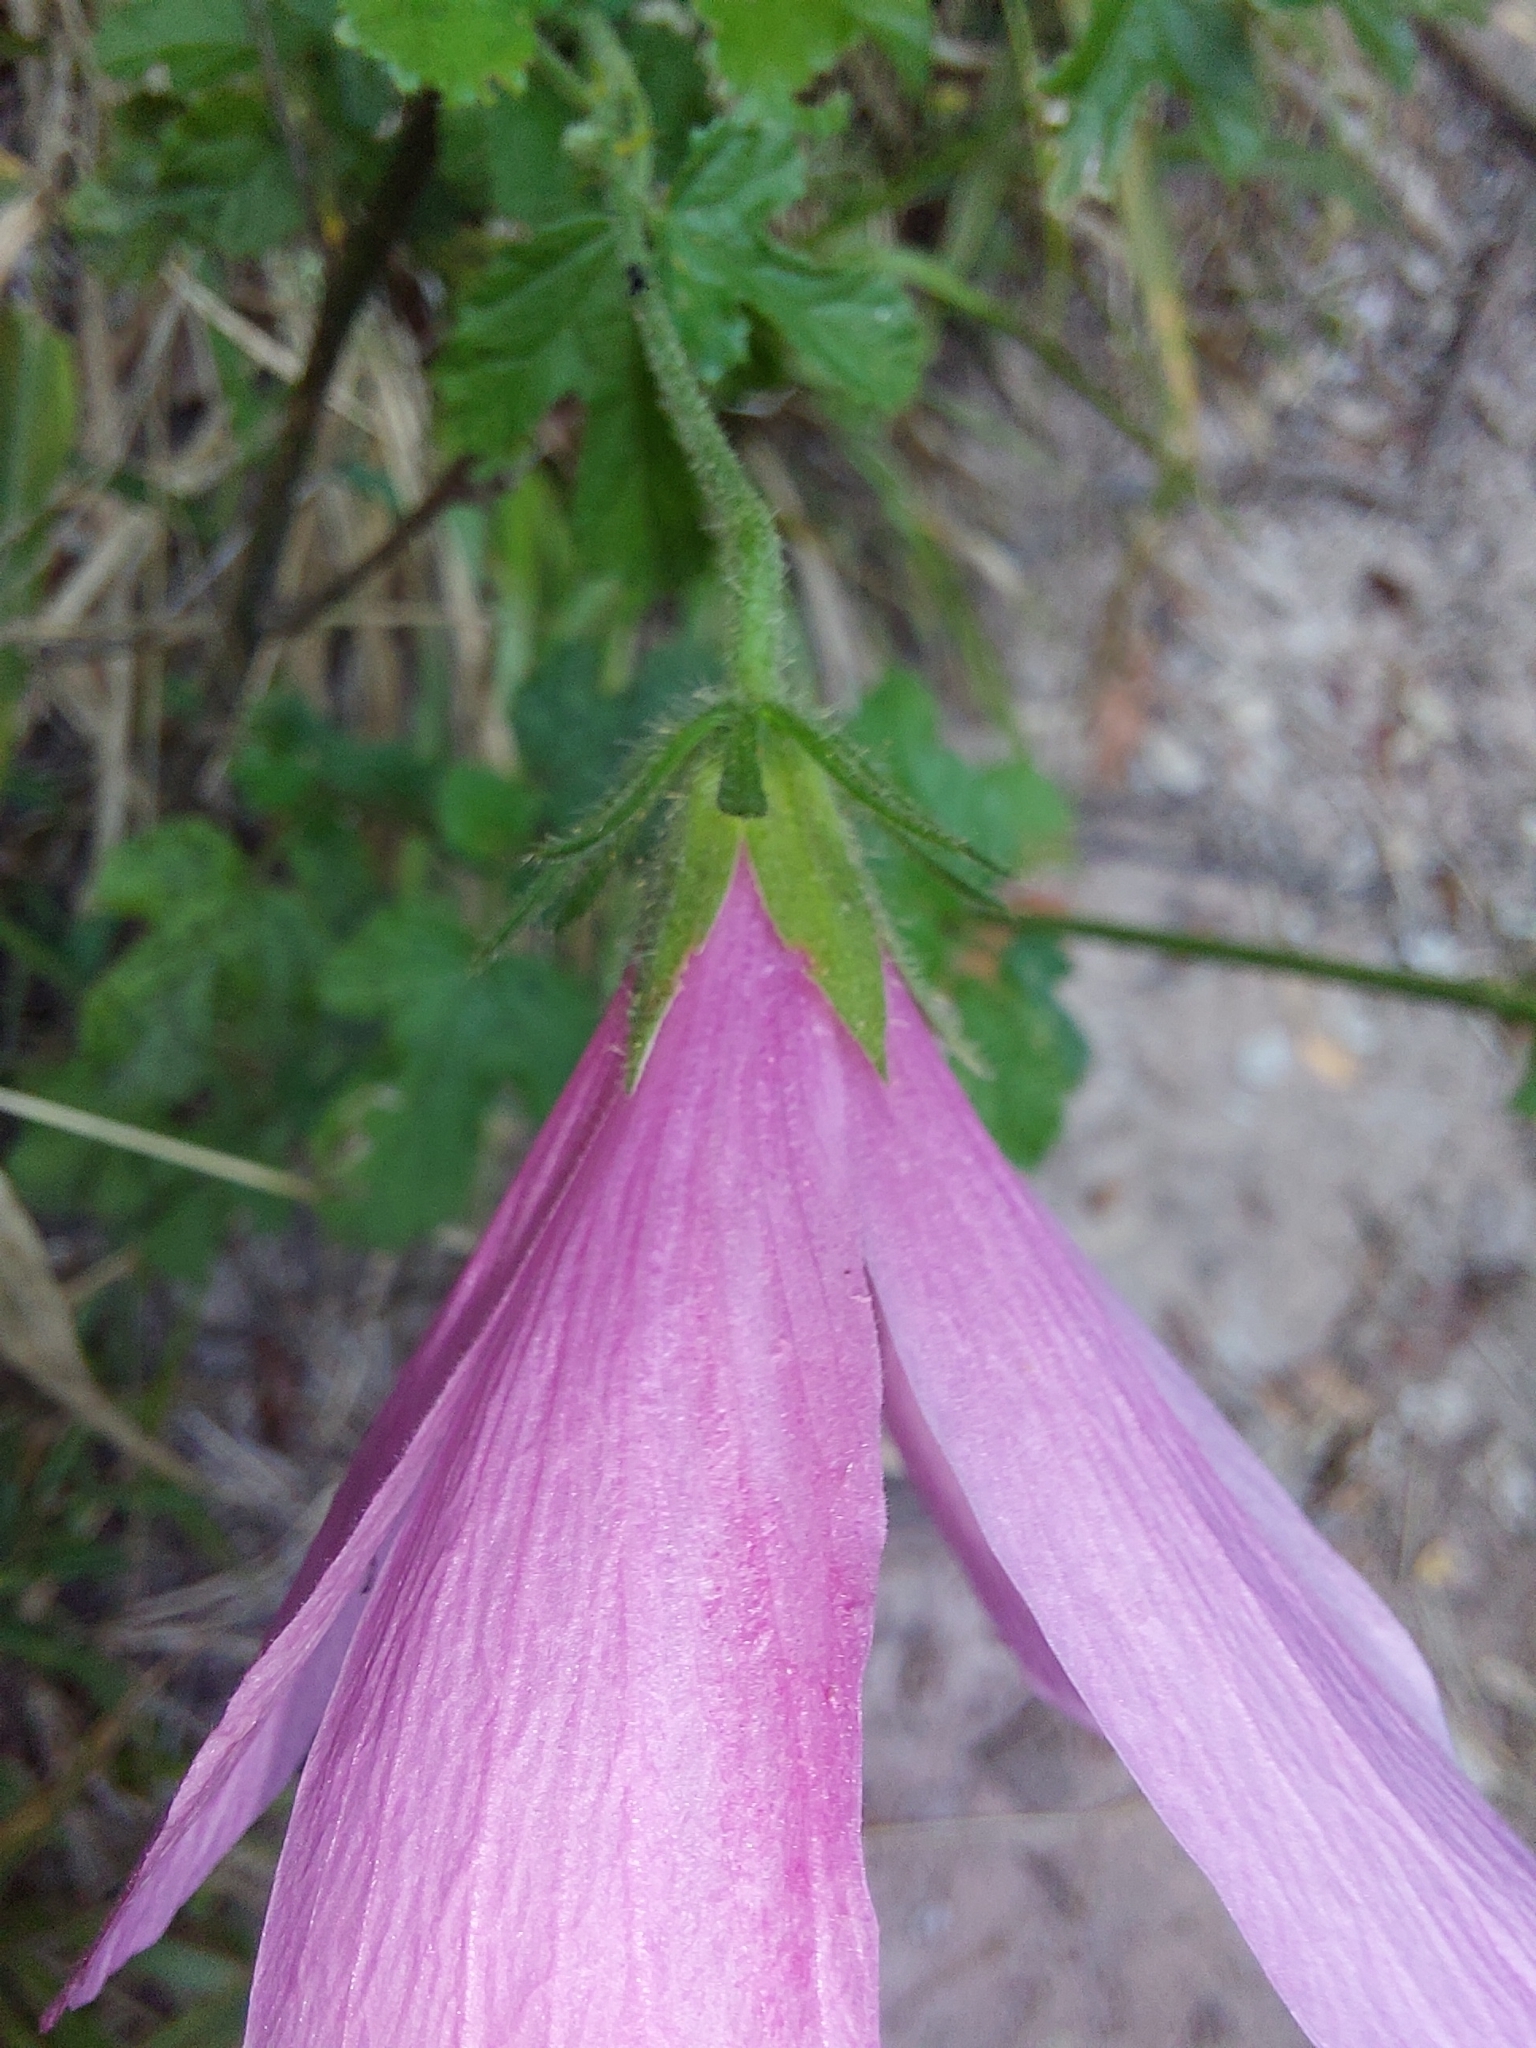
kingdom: Plantae
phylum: Tracheophyta
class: Magnoliopsida
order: Malvales
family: Malvaceae
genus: Hibiscus
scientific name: Hibiscus pedunculatus
